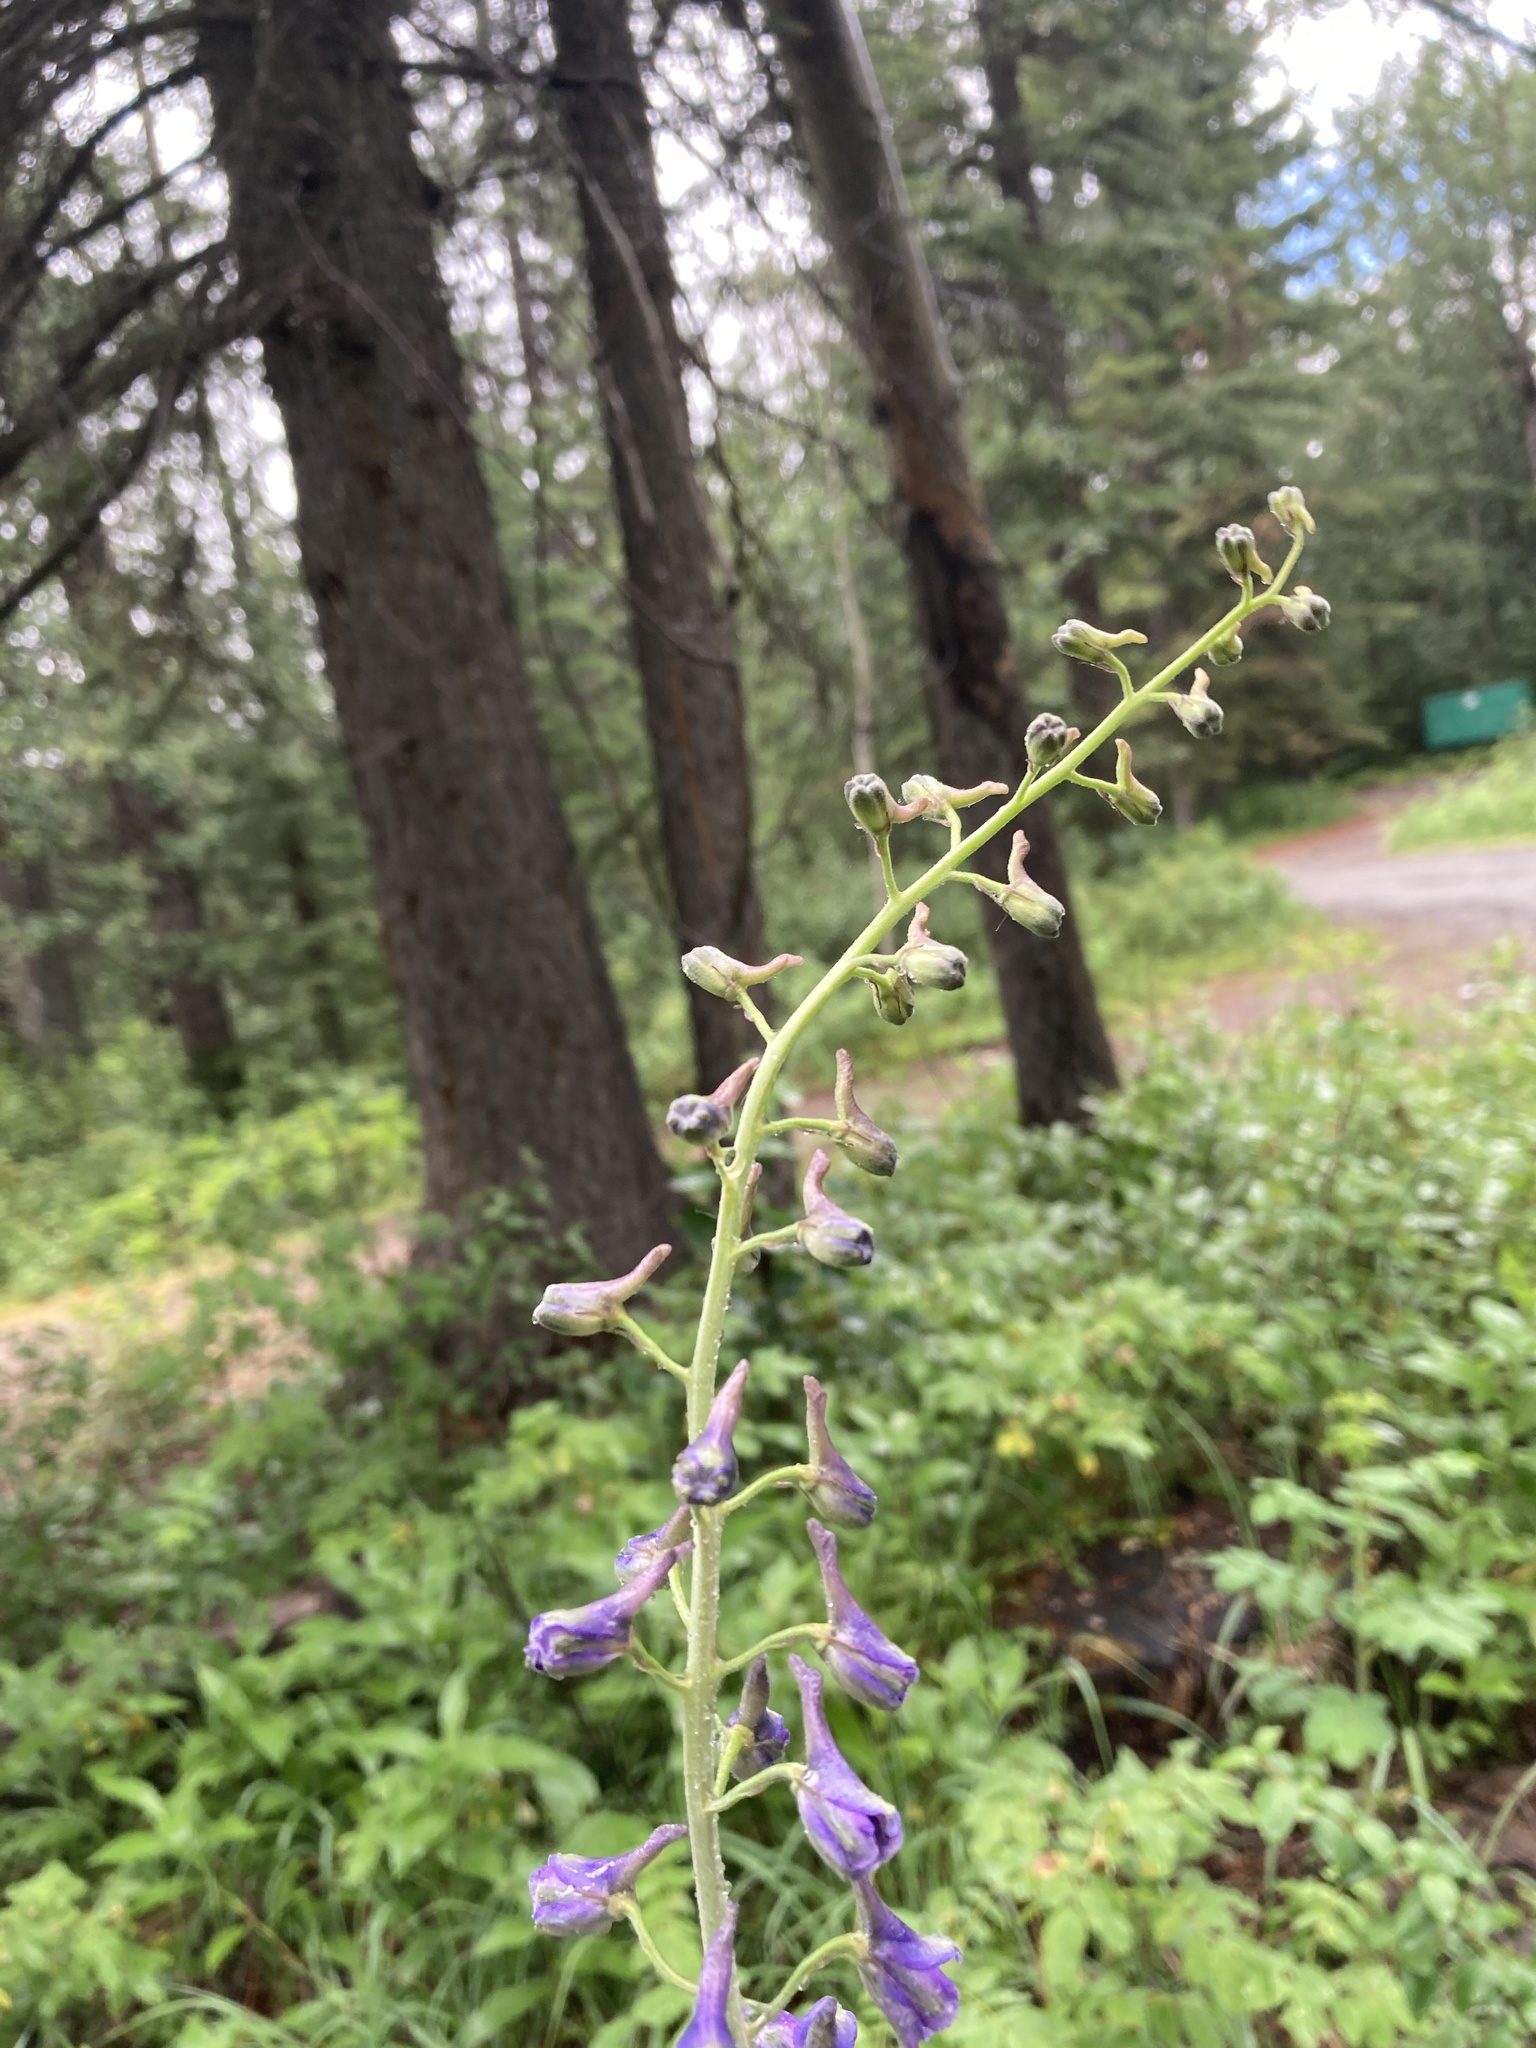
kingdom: Plantae
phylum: Tracheophyta
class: Magnoliopsida
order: Ranunculales
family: Ranunculaceae
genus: Delphinium
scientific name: Delphinium glaucum
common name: Brown's larkspur
